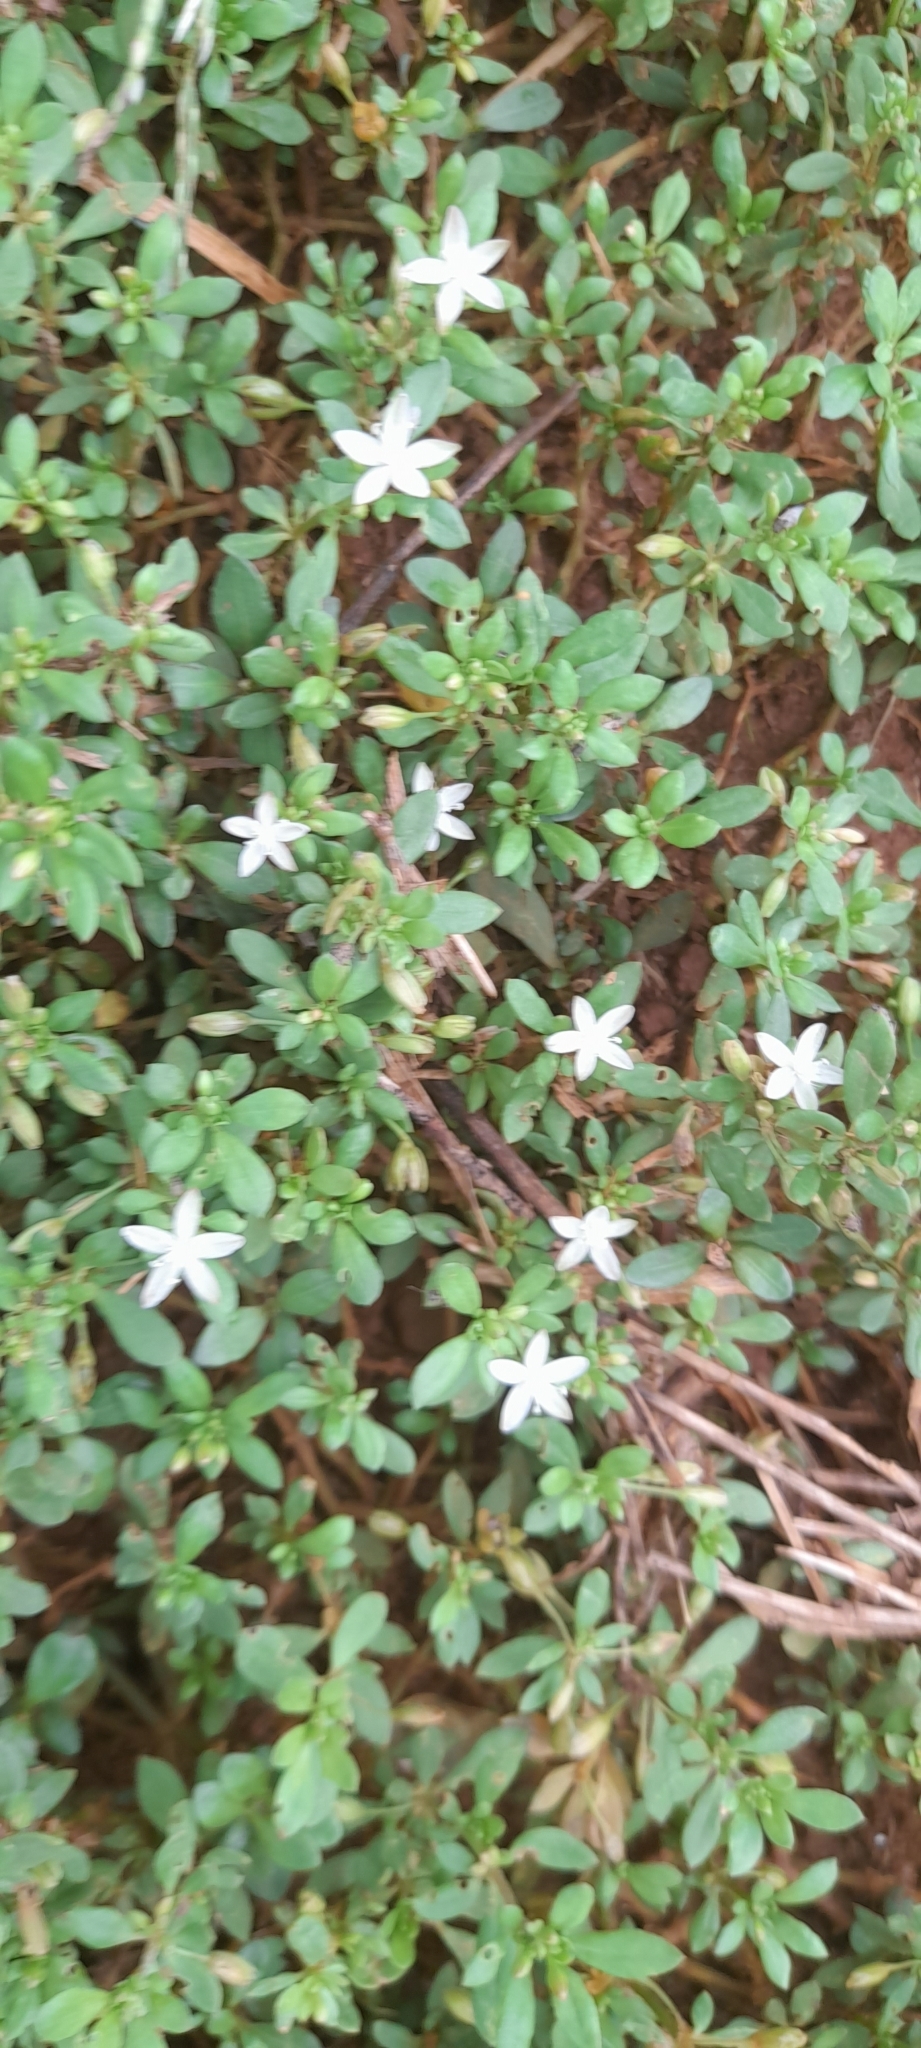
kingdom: Plantae
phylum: Tracheophyta
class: Magnoliopsida
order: Caryophyllales
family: Molluginaceae
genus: Glinus
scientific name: Glinus oppositifolius
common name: Slender carpetweed
